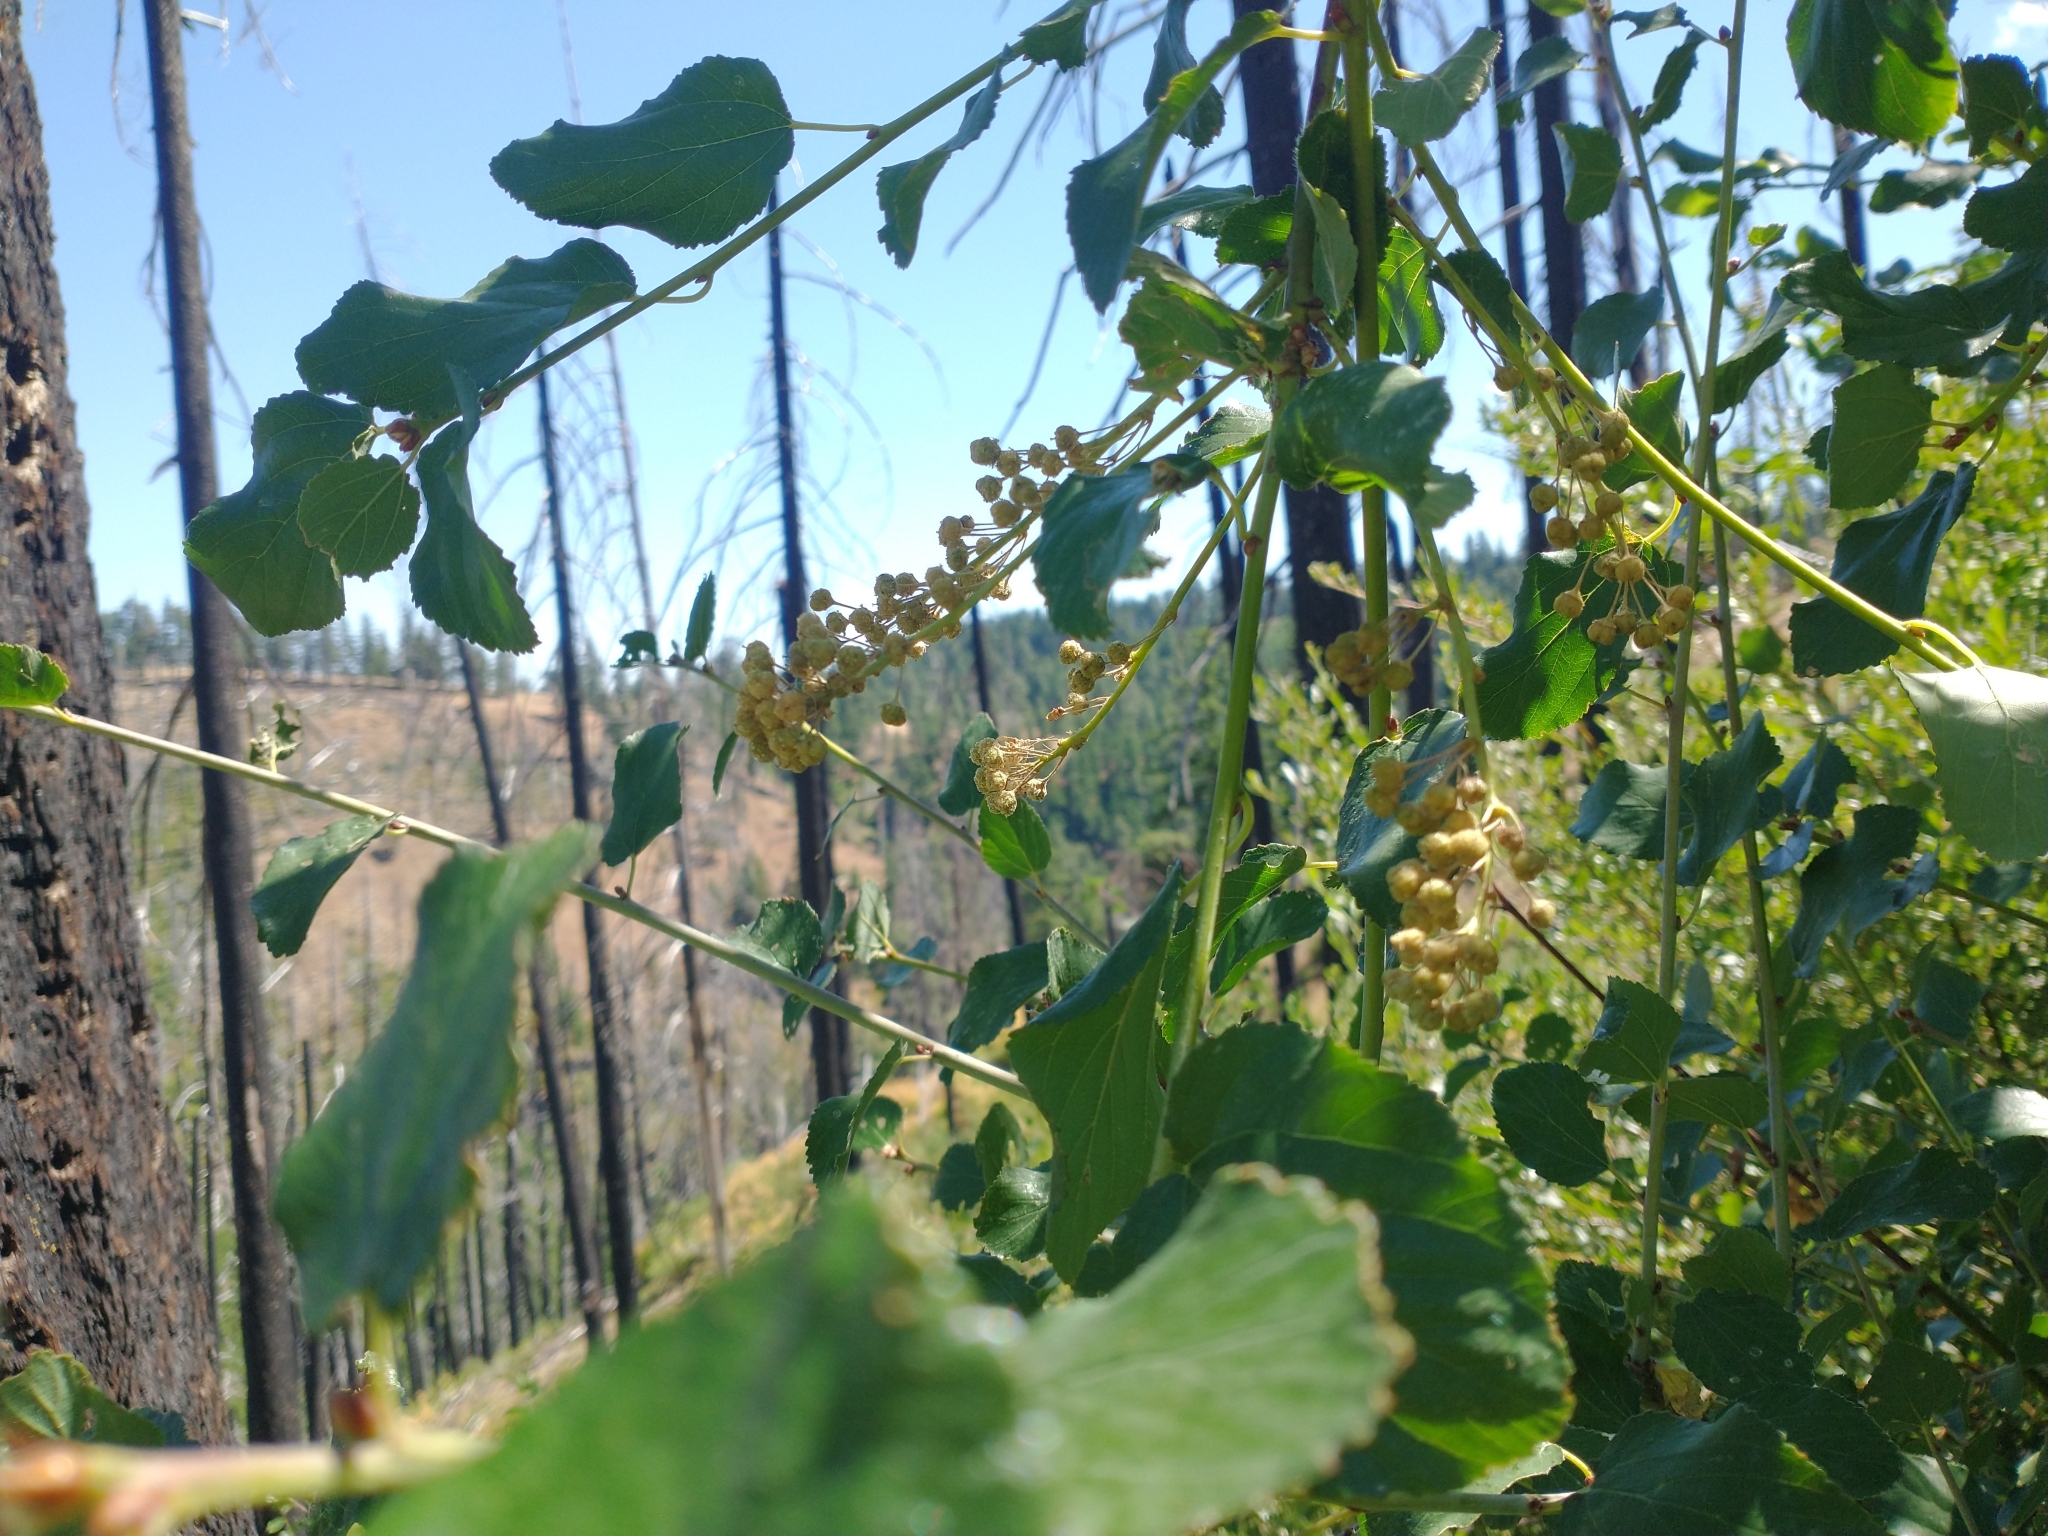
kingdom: Plantae
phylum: Tracheophyta
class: Magnoliopsida
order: Rosales
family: Rhamnaceae
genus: Ceanothus
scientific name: Ceanothus sanguineus
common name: Teatree
